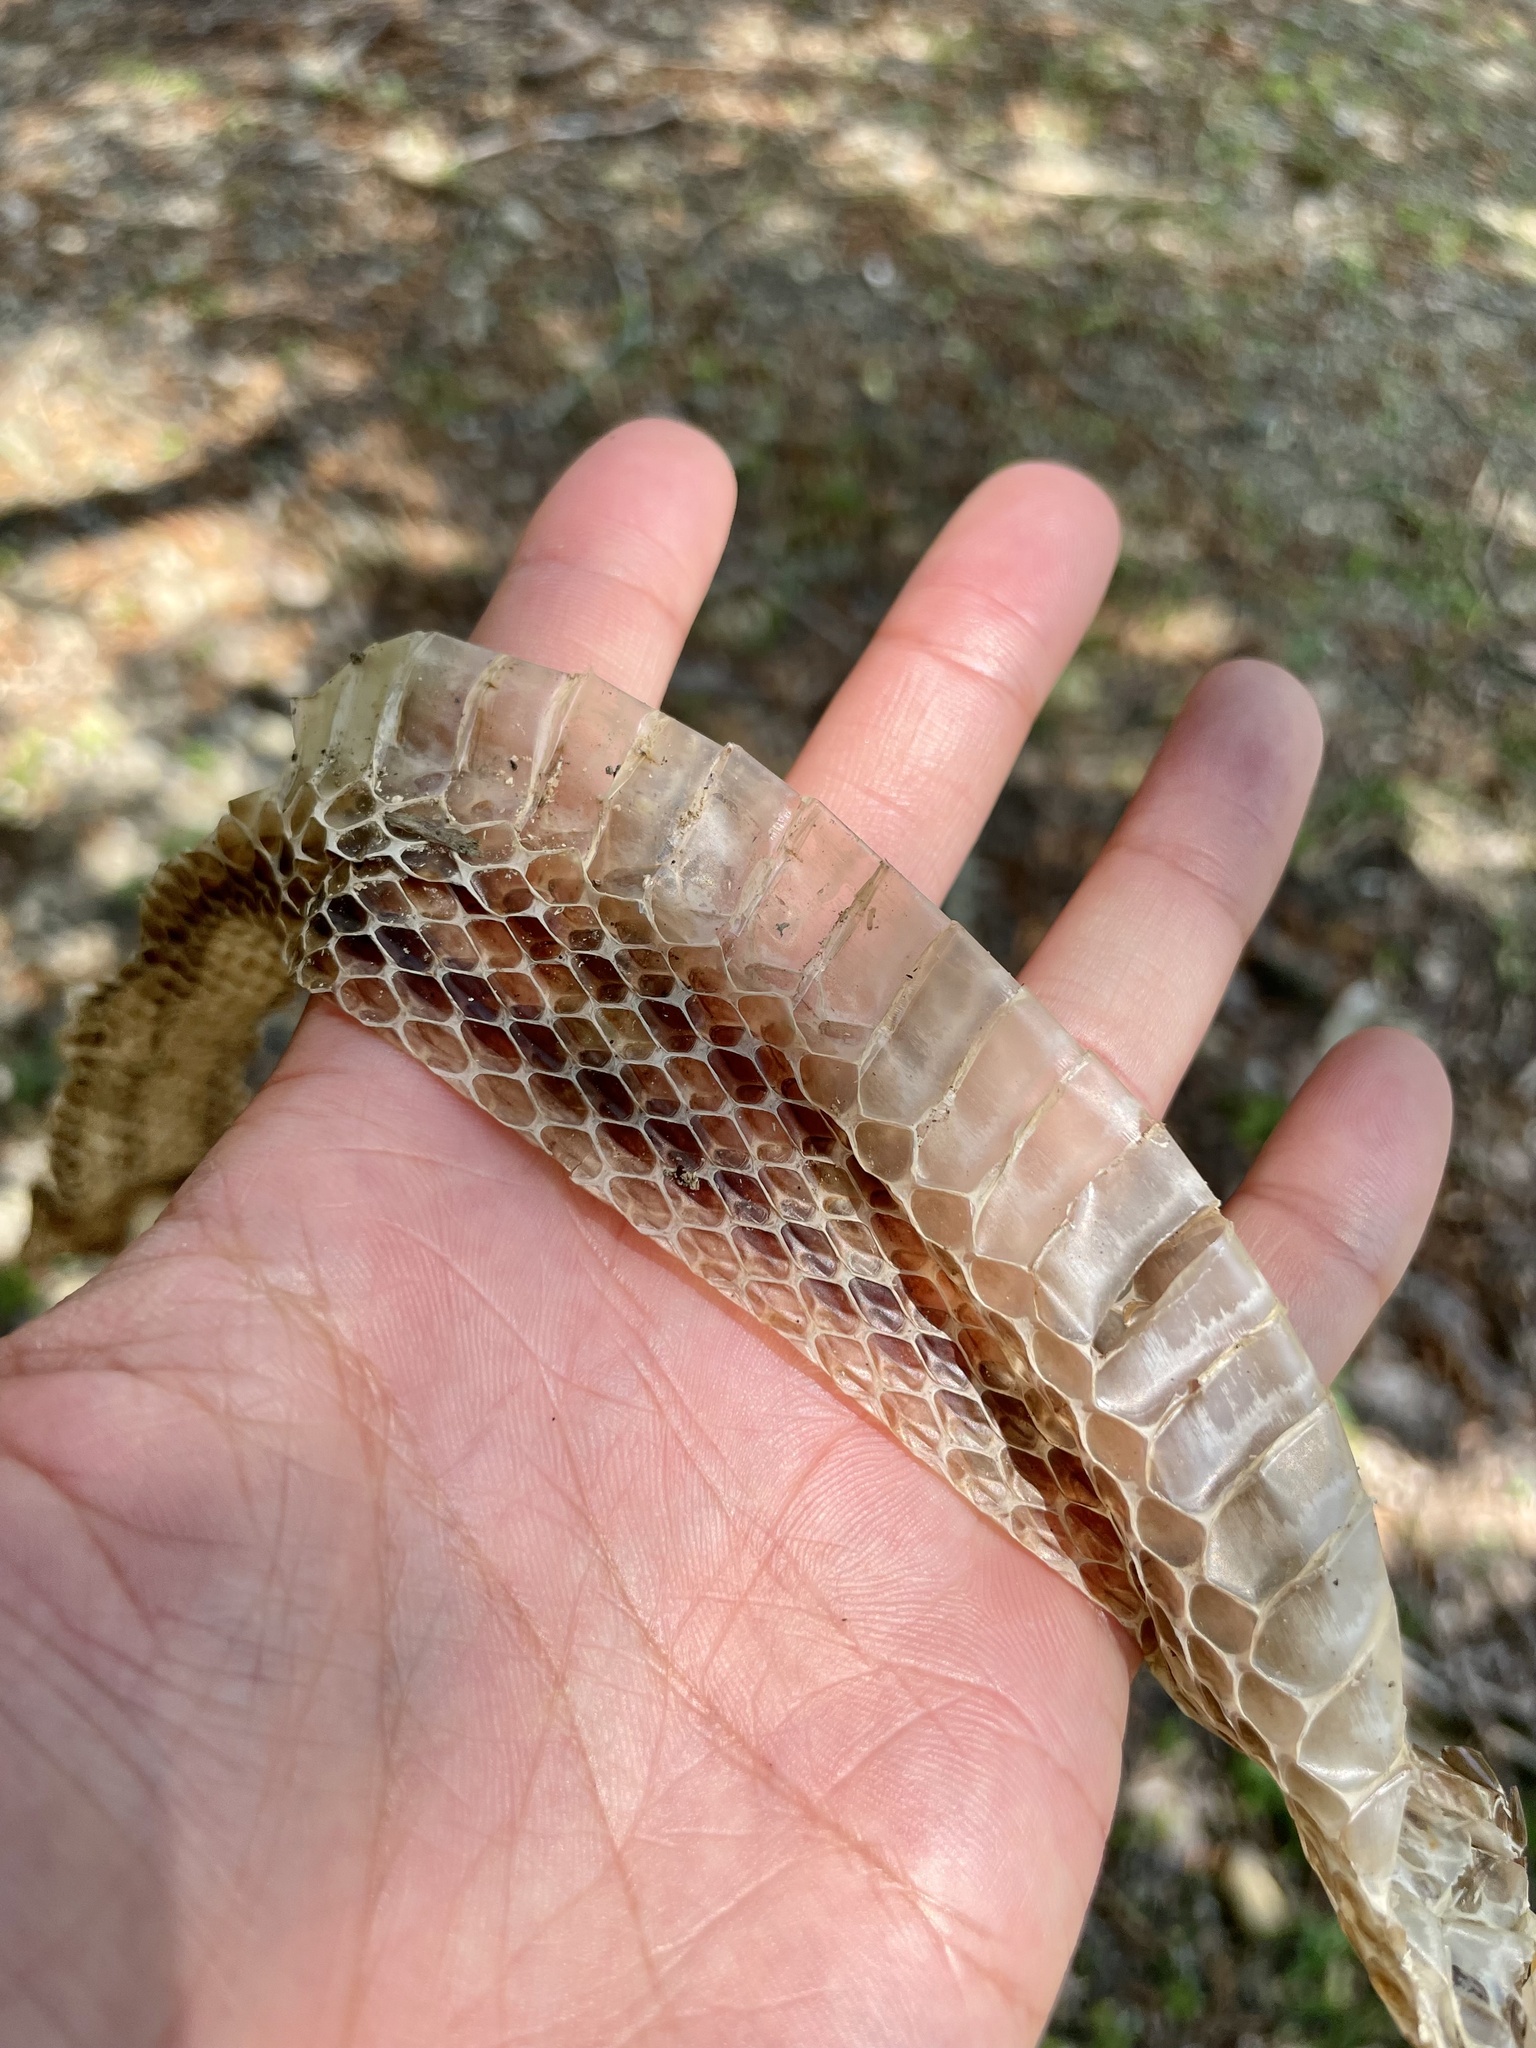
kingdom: Animalia
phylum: Chordata
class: Squamata
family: Colubridae
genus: Elaphe
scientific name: Elaphe quadrivirgata
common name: Japanese four-lined ratsnake
